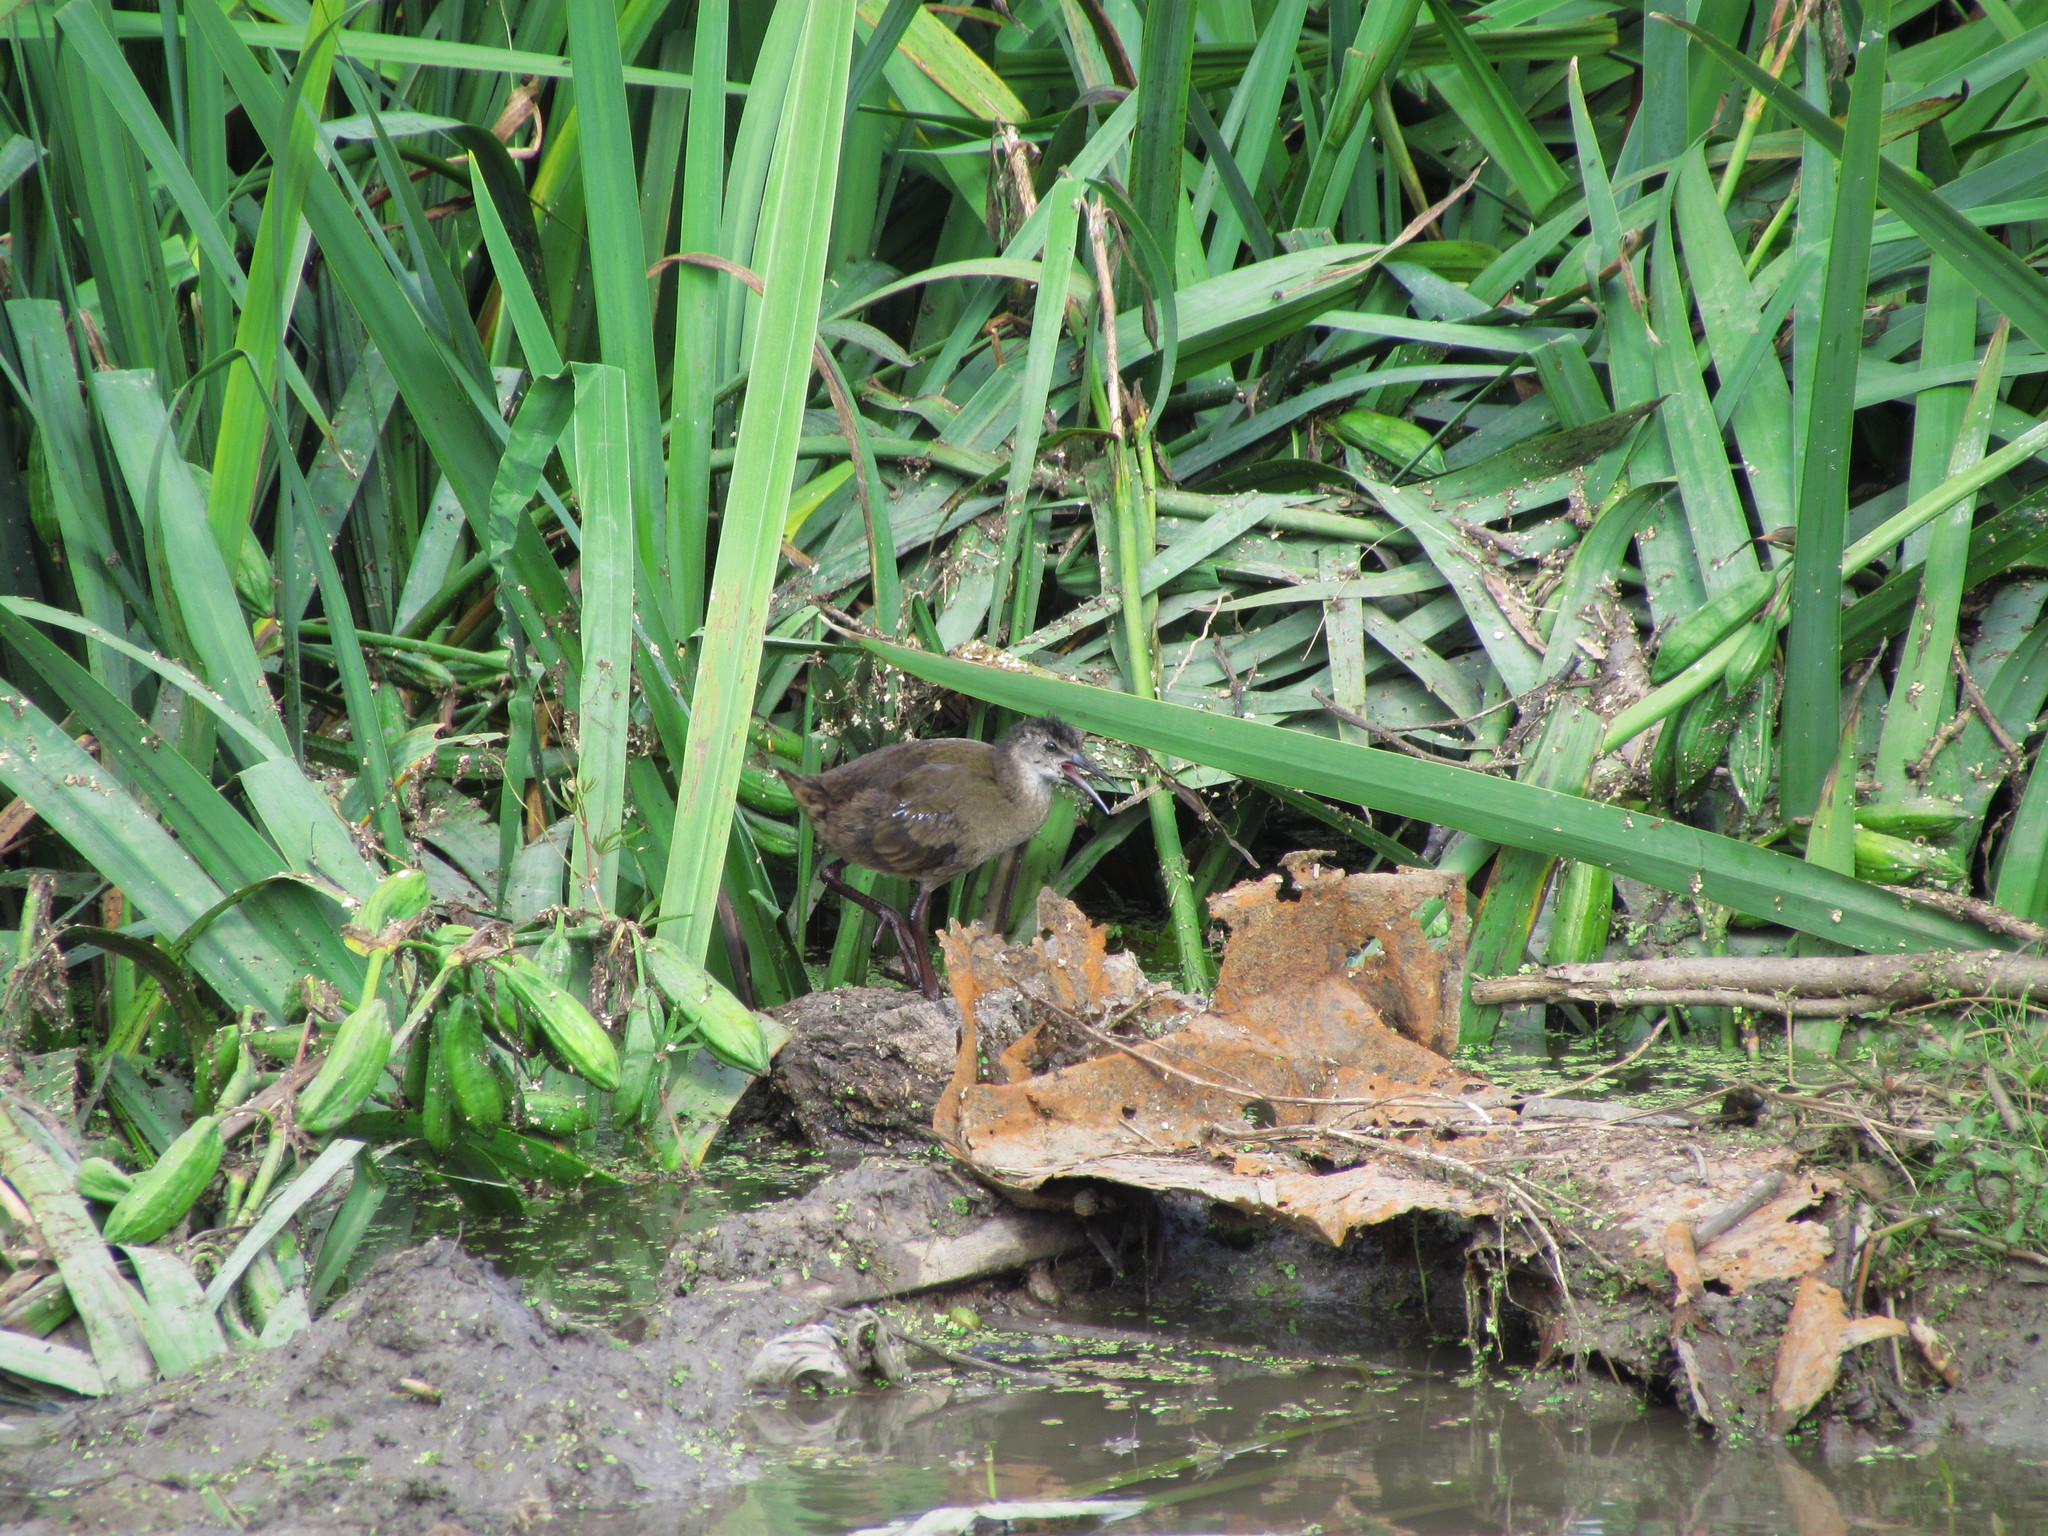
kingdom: Animalia
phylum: Chordata
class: Aves
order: Gruiformes
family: Rallidae
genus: Pardirallus
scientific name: Pardirallus sanguinolentus
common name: Plumbeous rail
